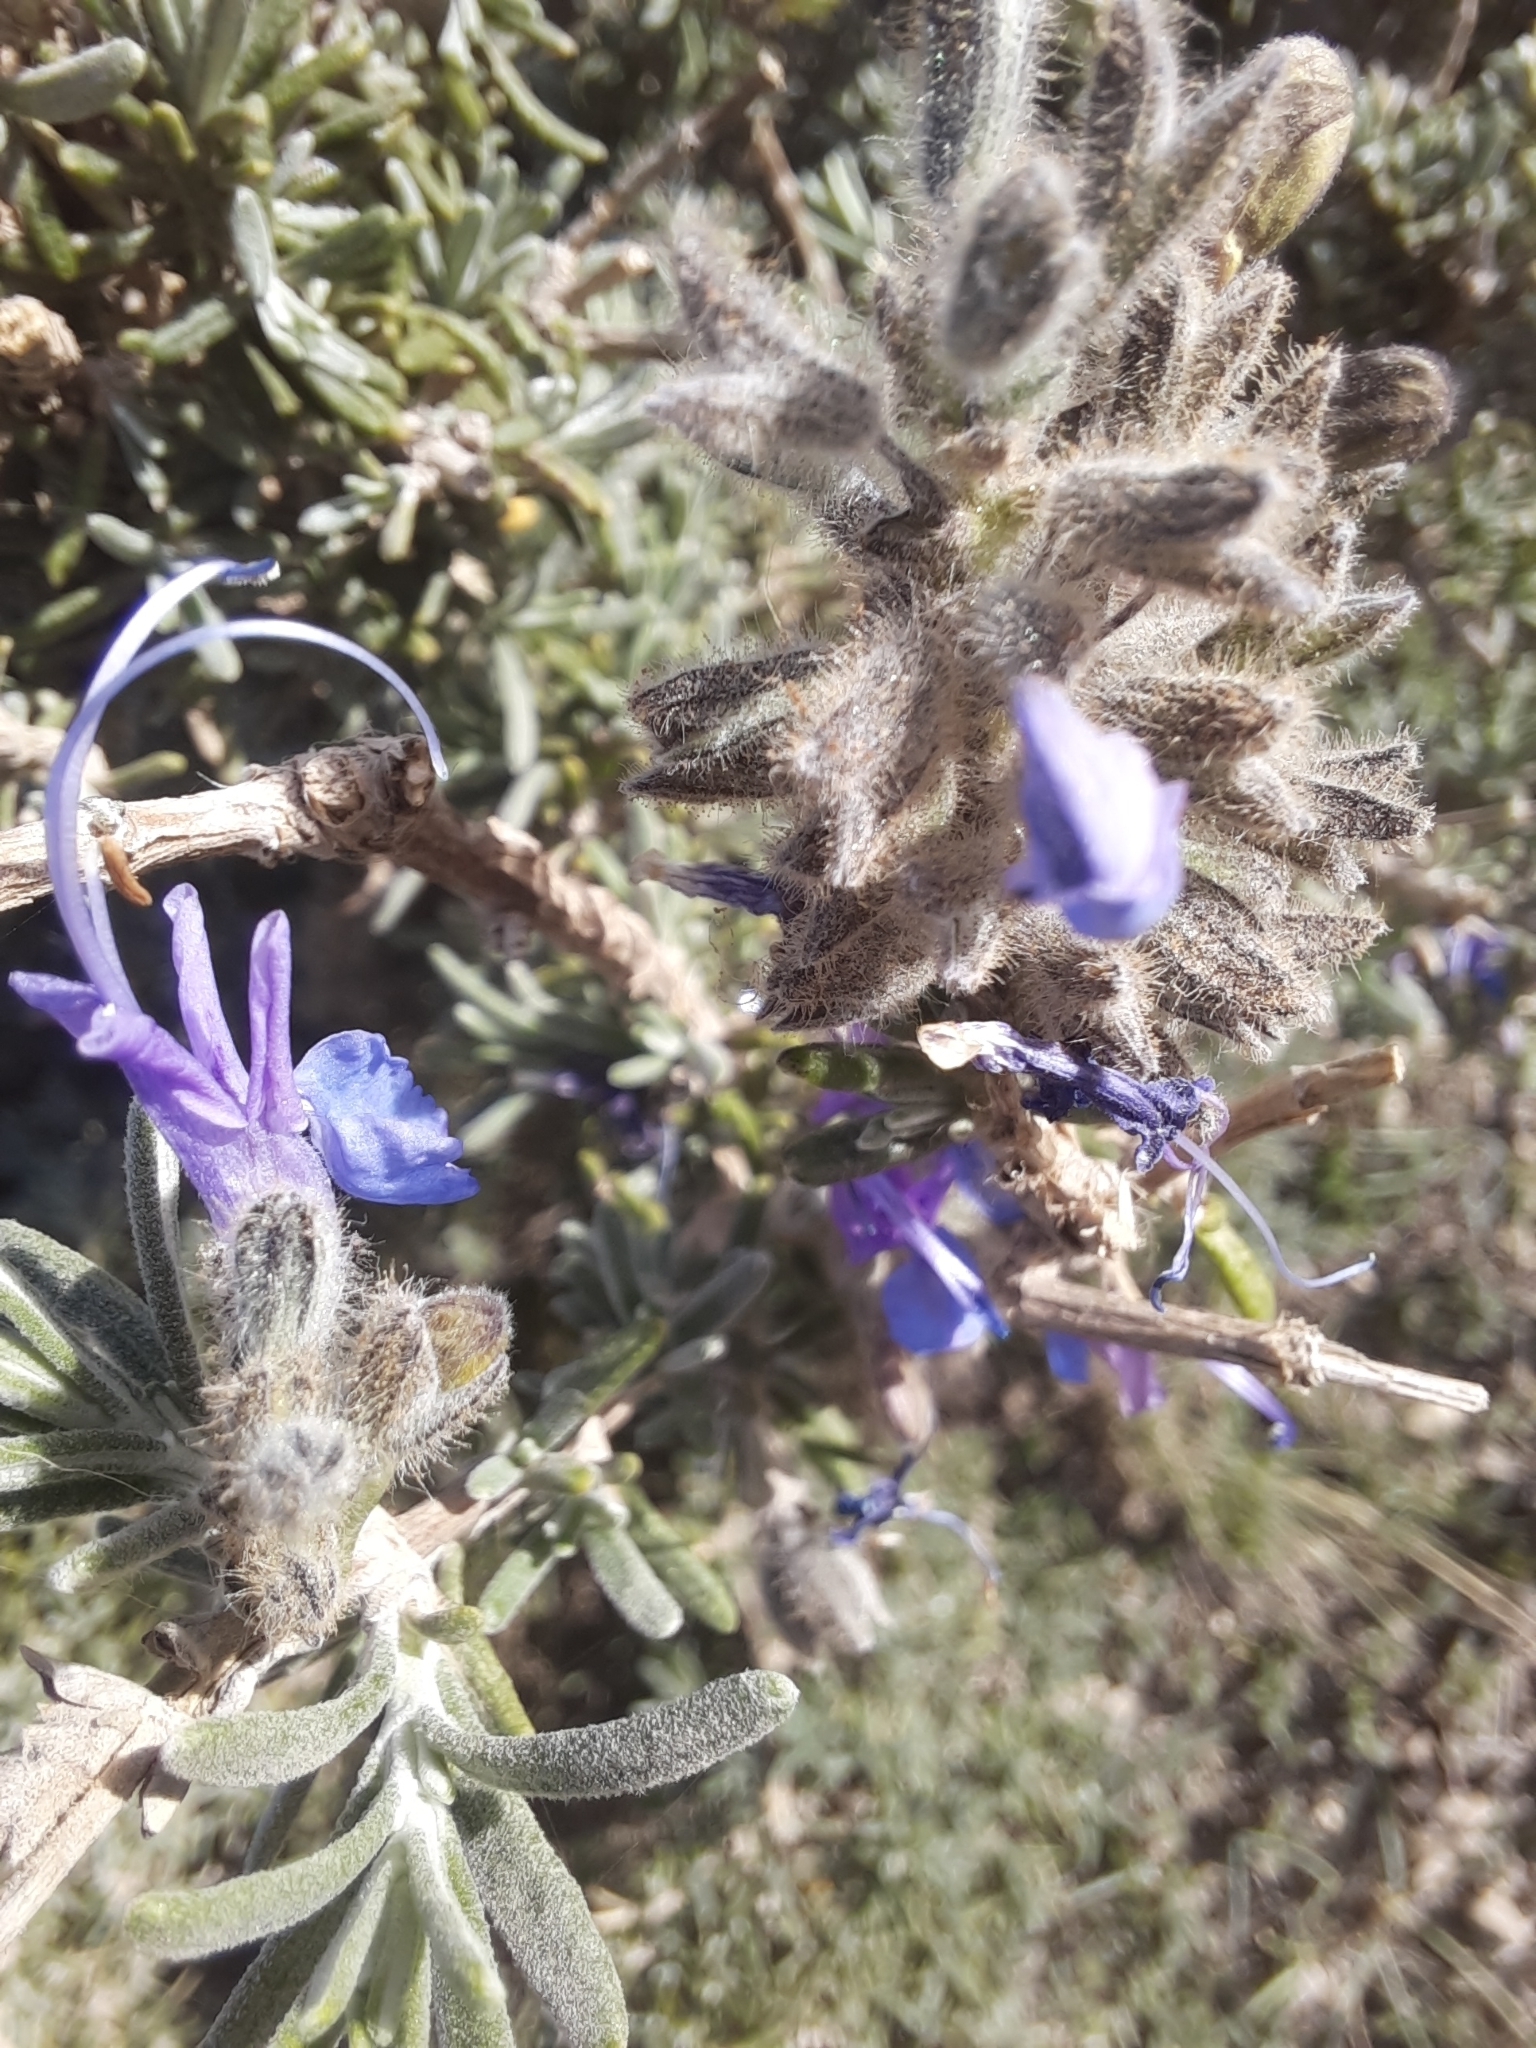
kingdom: Plantae
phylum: Tracheophyta
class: Magnoliopsida
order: Lamiales
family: Lamiaceae
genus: Salvia
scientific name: Salvia jordanii
